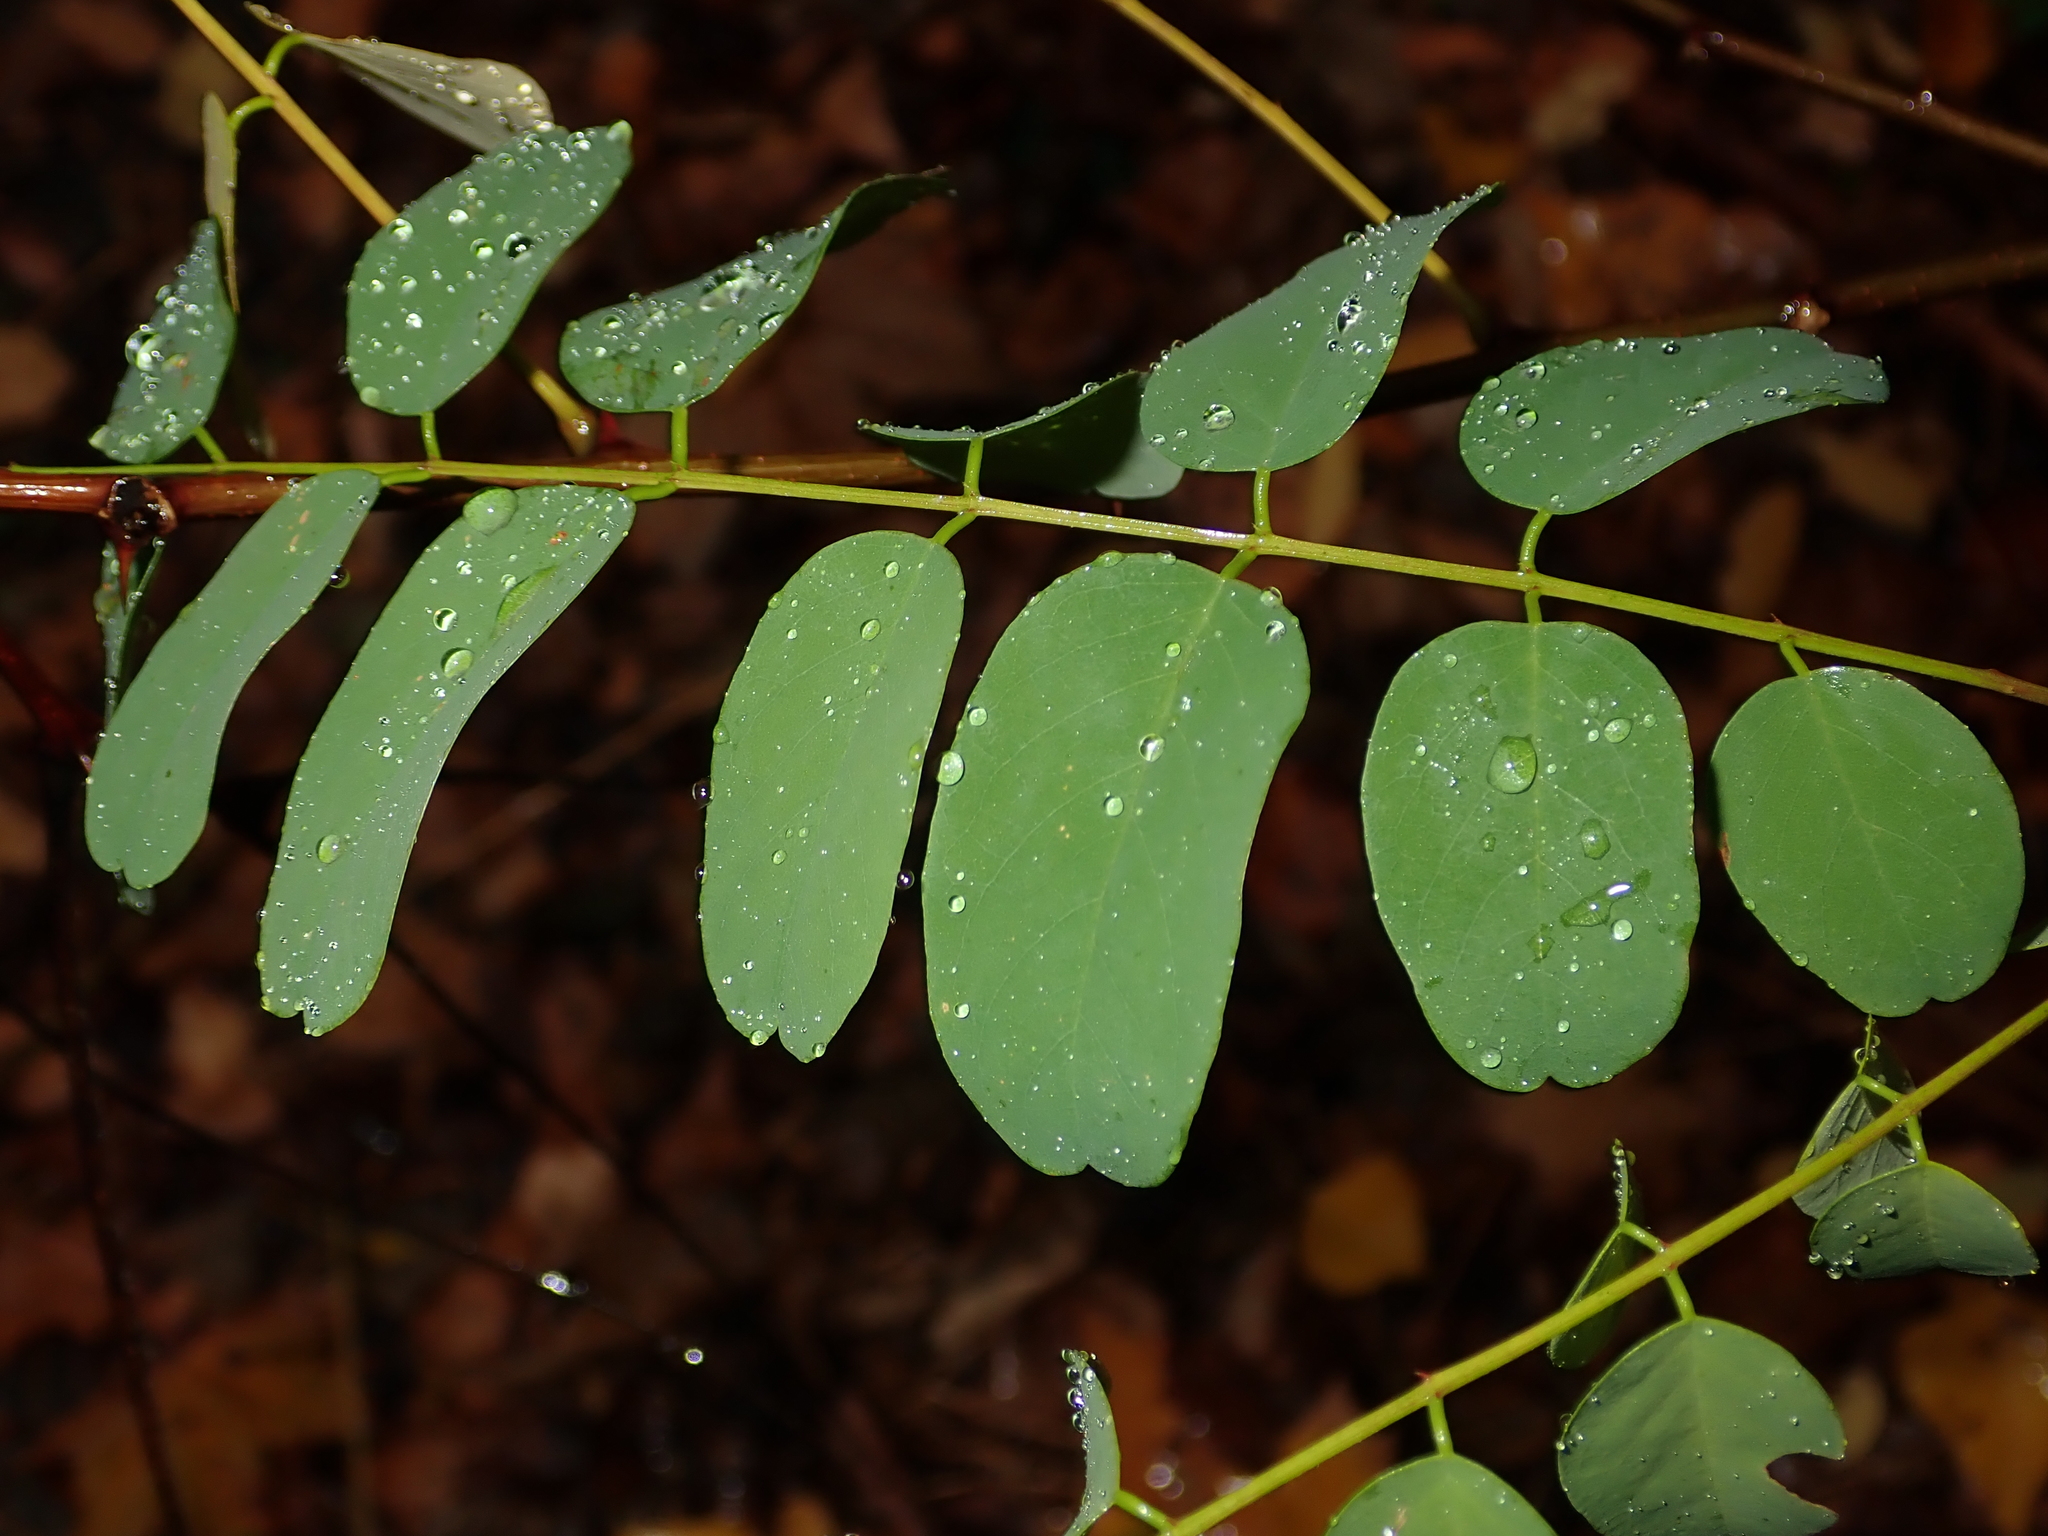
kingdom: Plantae
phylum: Tracheophyta
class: Magnoliopsida
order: Fabales
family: Fabaceae
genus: Robinia
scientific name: Robinia pseudoacacia
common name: Black locust
